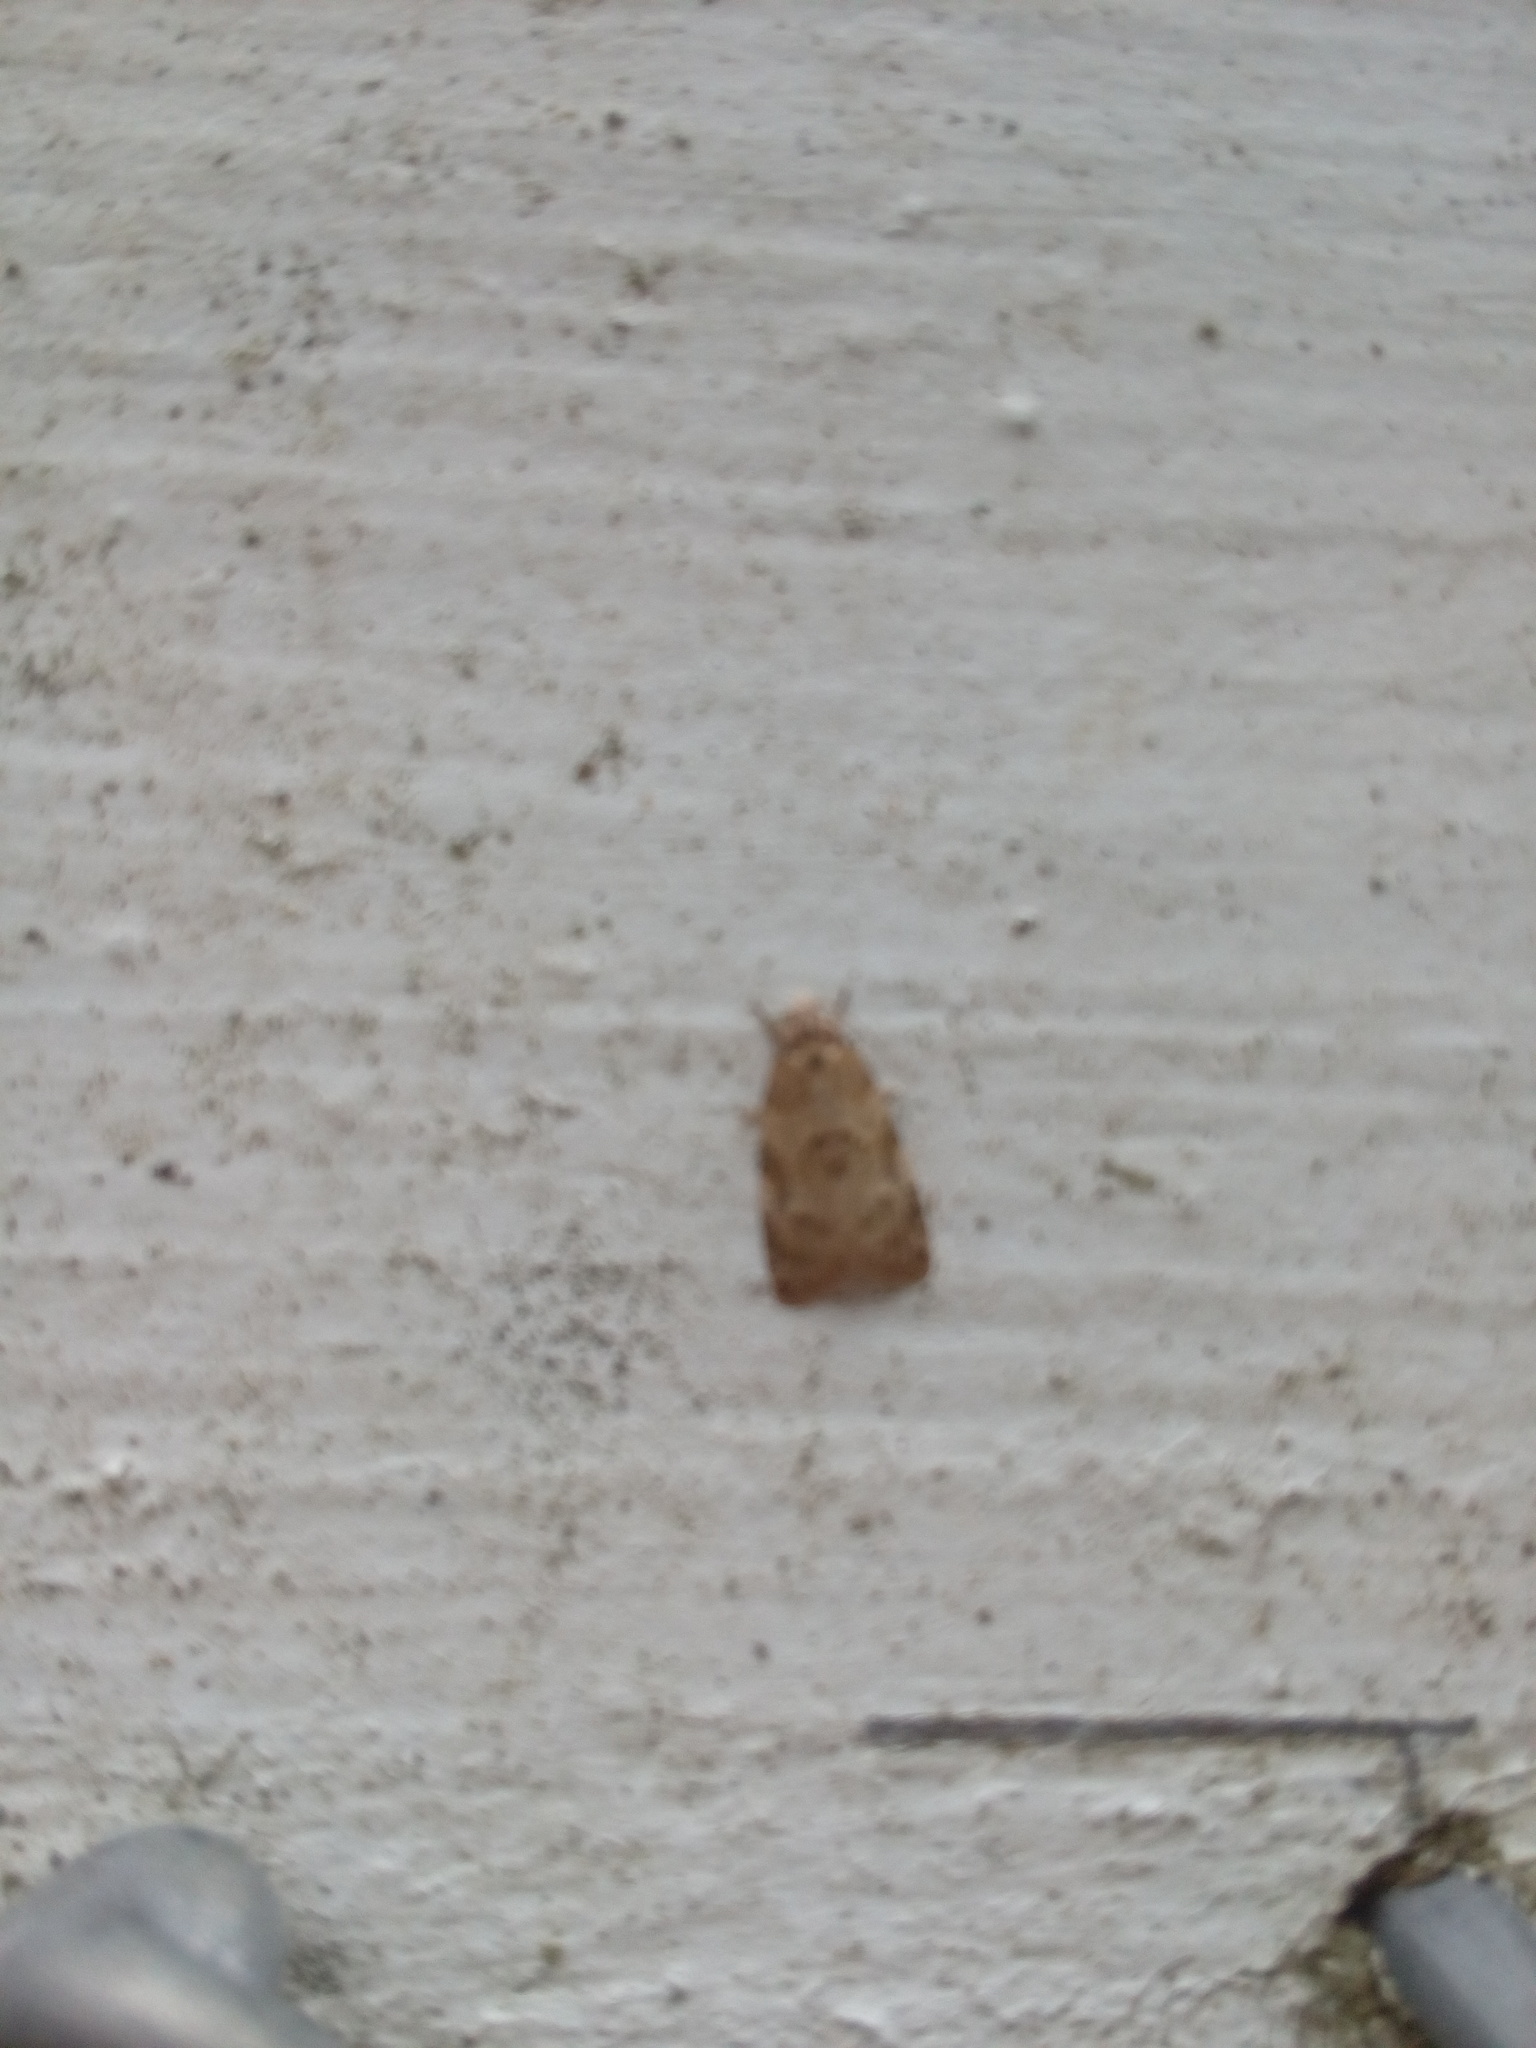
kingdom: Animalia
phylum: Arthropoda
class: Insecta
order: Lepidoptera
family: Tortricidae
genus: Dipterina
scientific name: Dipterina imbriferana
